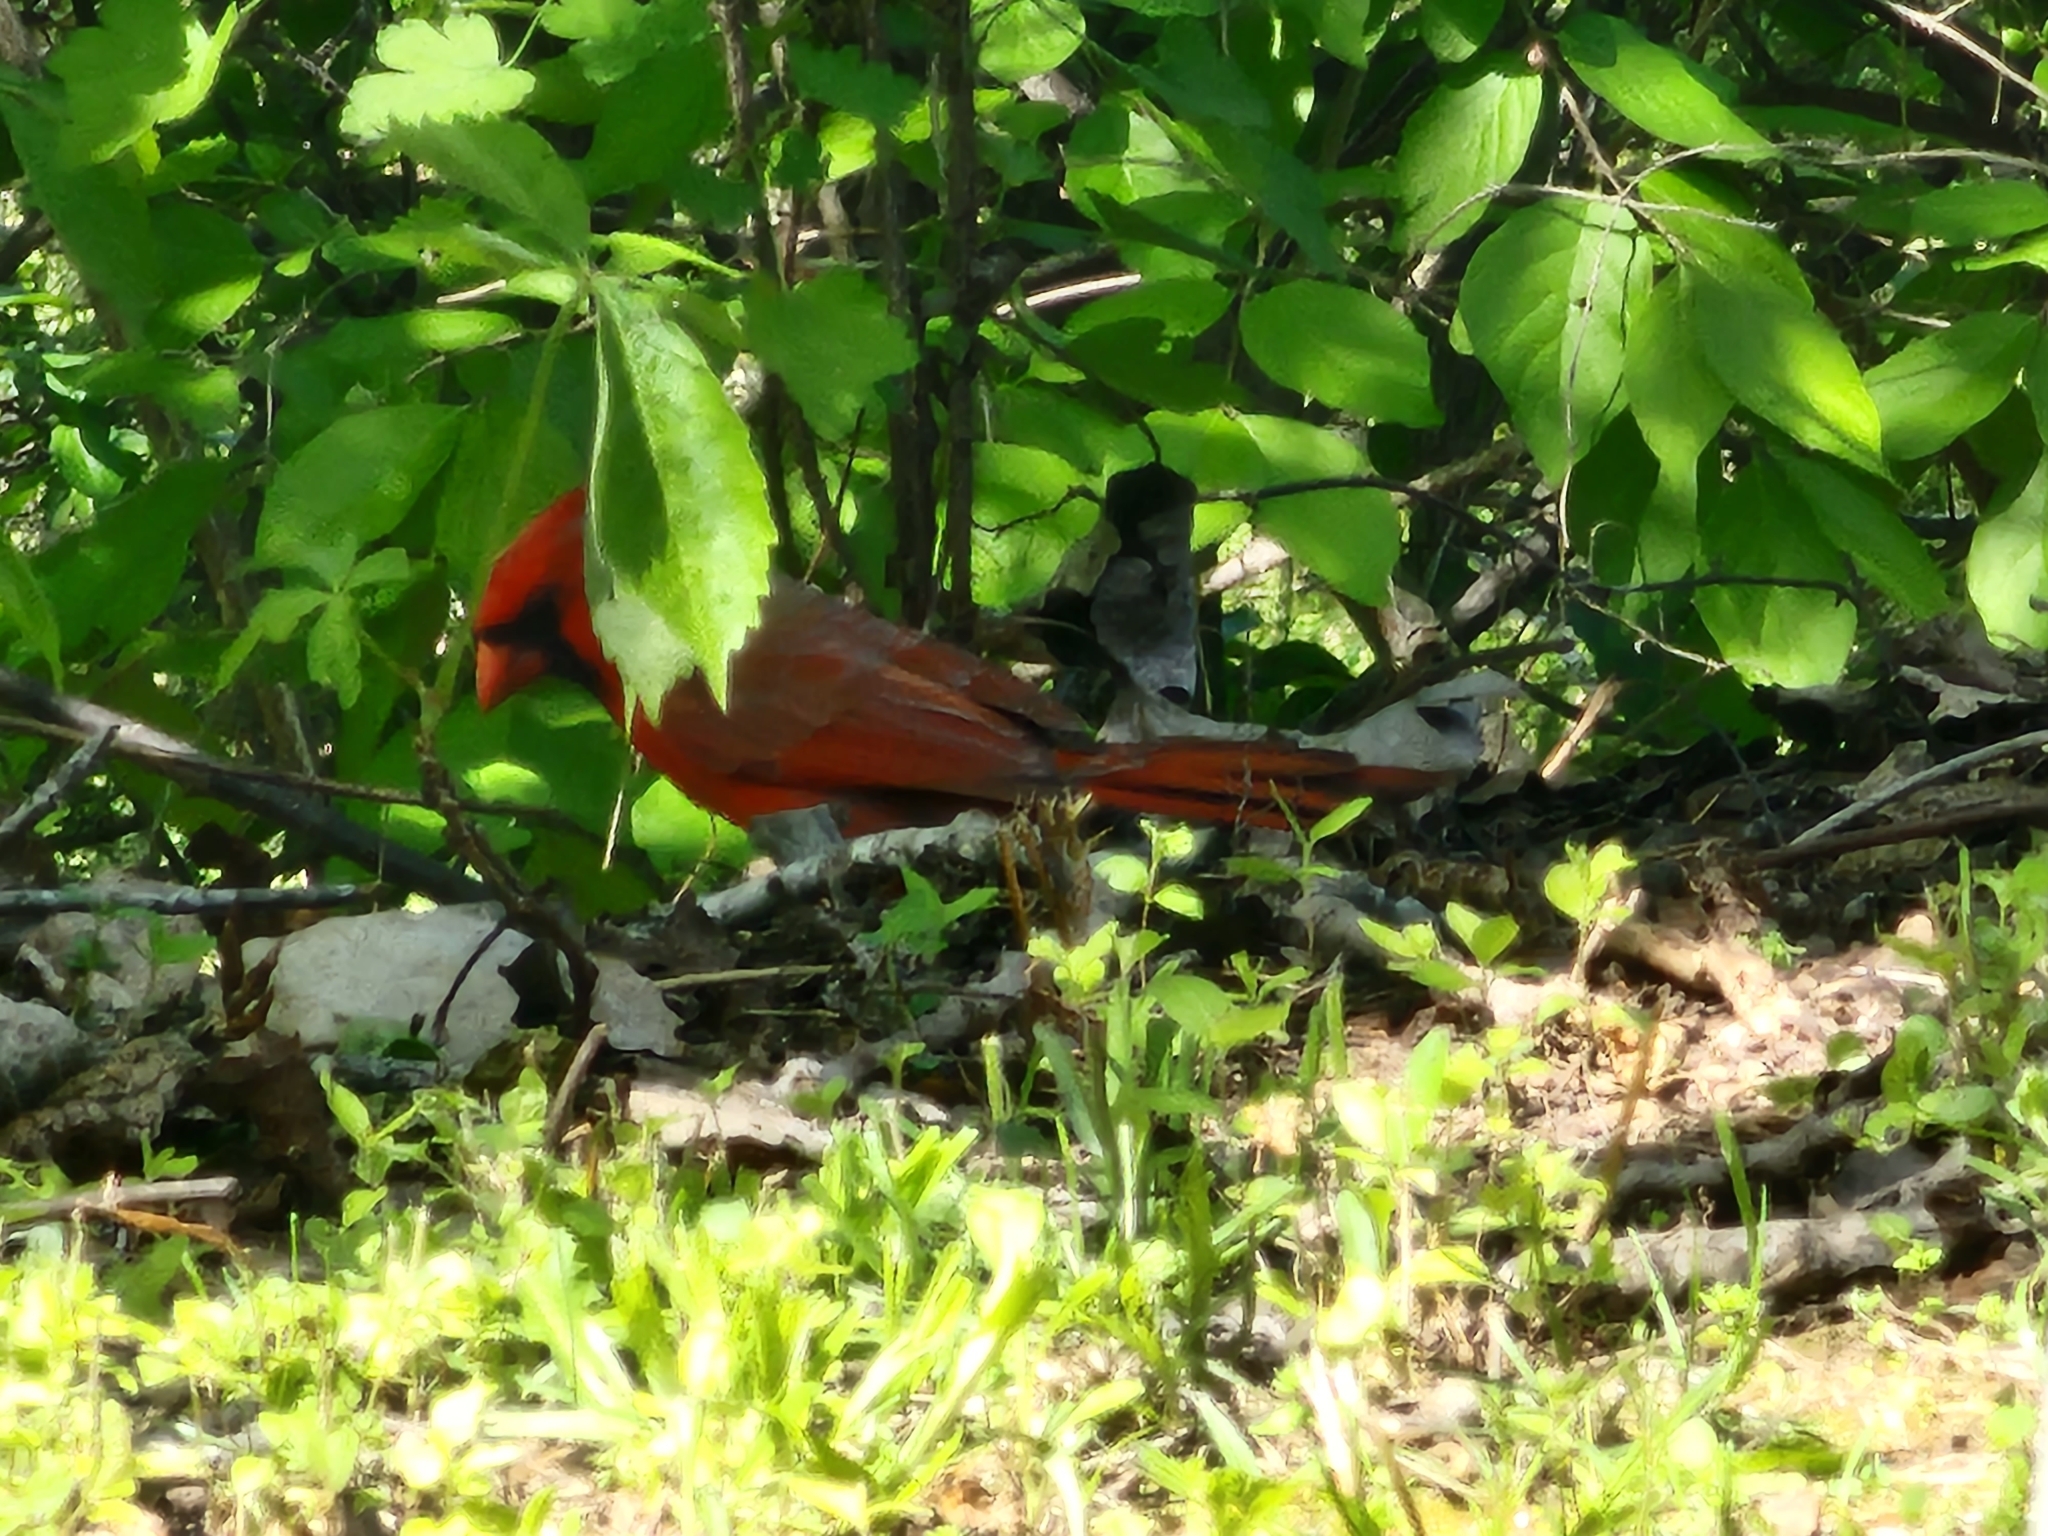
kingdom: Animalia
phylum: Chordata
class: Aves
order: Passeriformes
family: Cardinalidae
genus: Cardinalis
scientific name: Cardinalis cardinalis
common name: Northern cardinal
